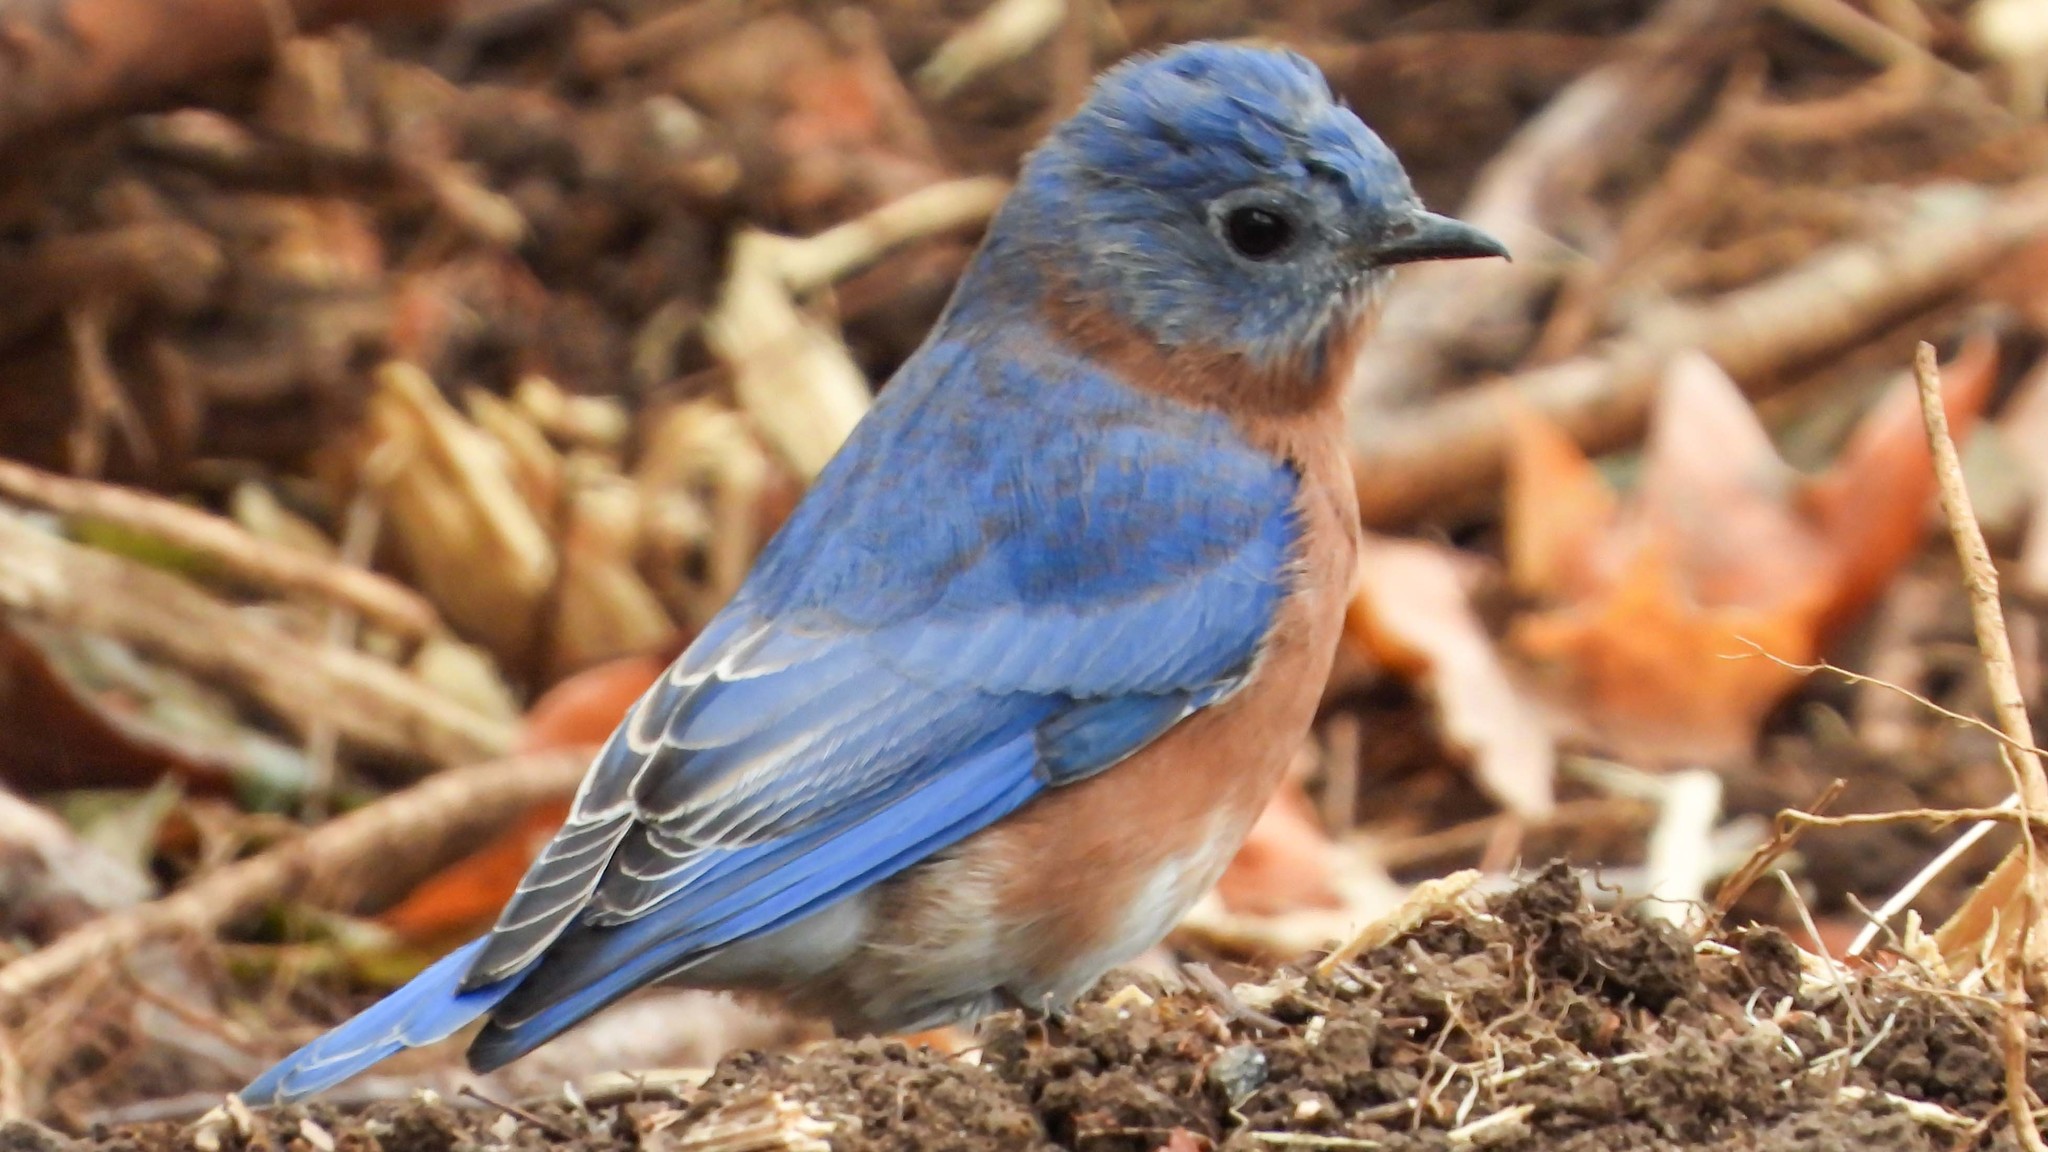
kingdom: Animalia
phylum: Chordata
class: Aves
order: Passeriformes
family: Turdidae
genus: Sialia
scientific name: Sialia sialis
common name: Eastern bluebird
